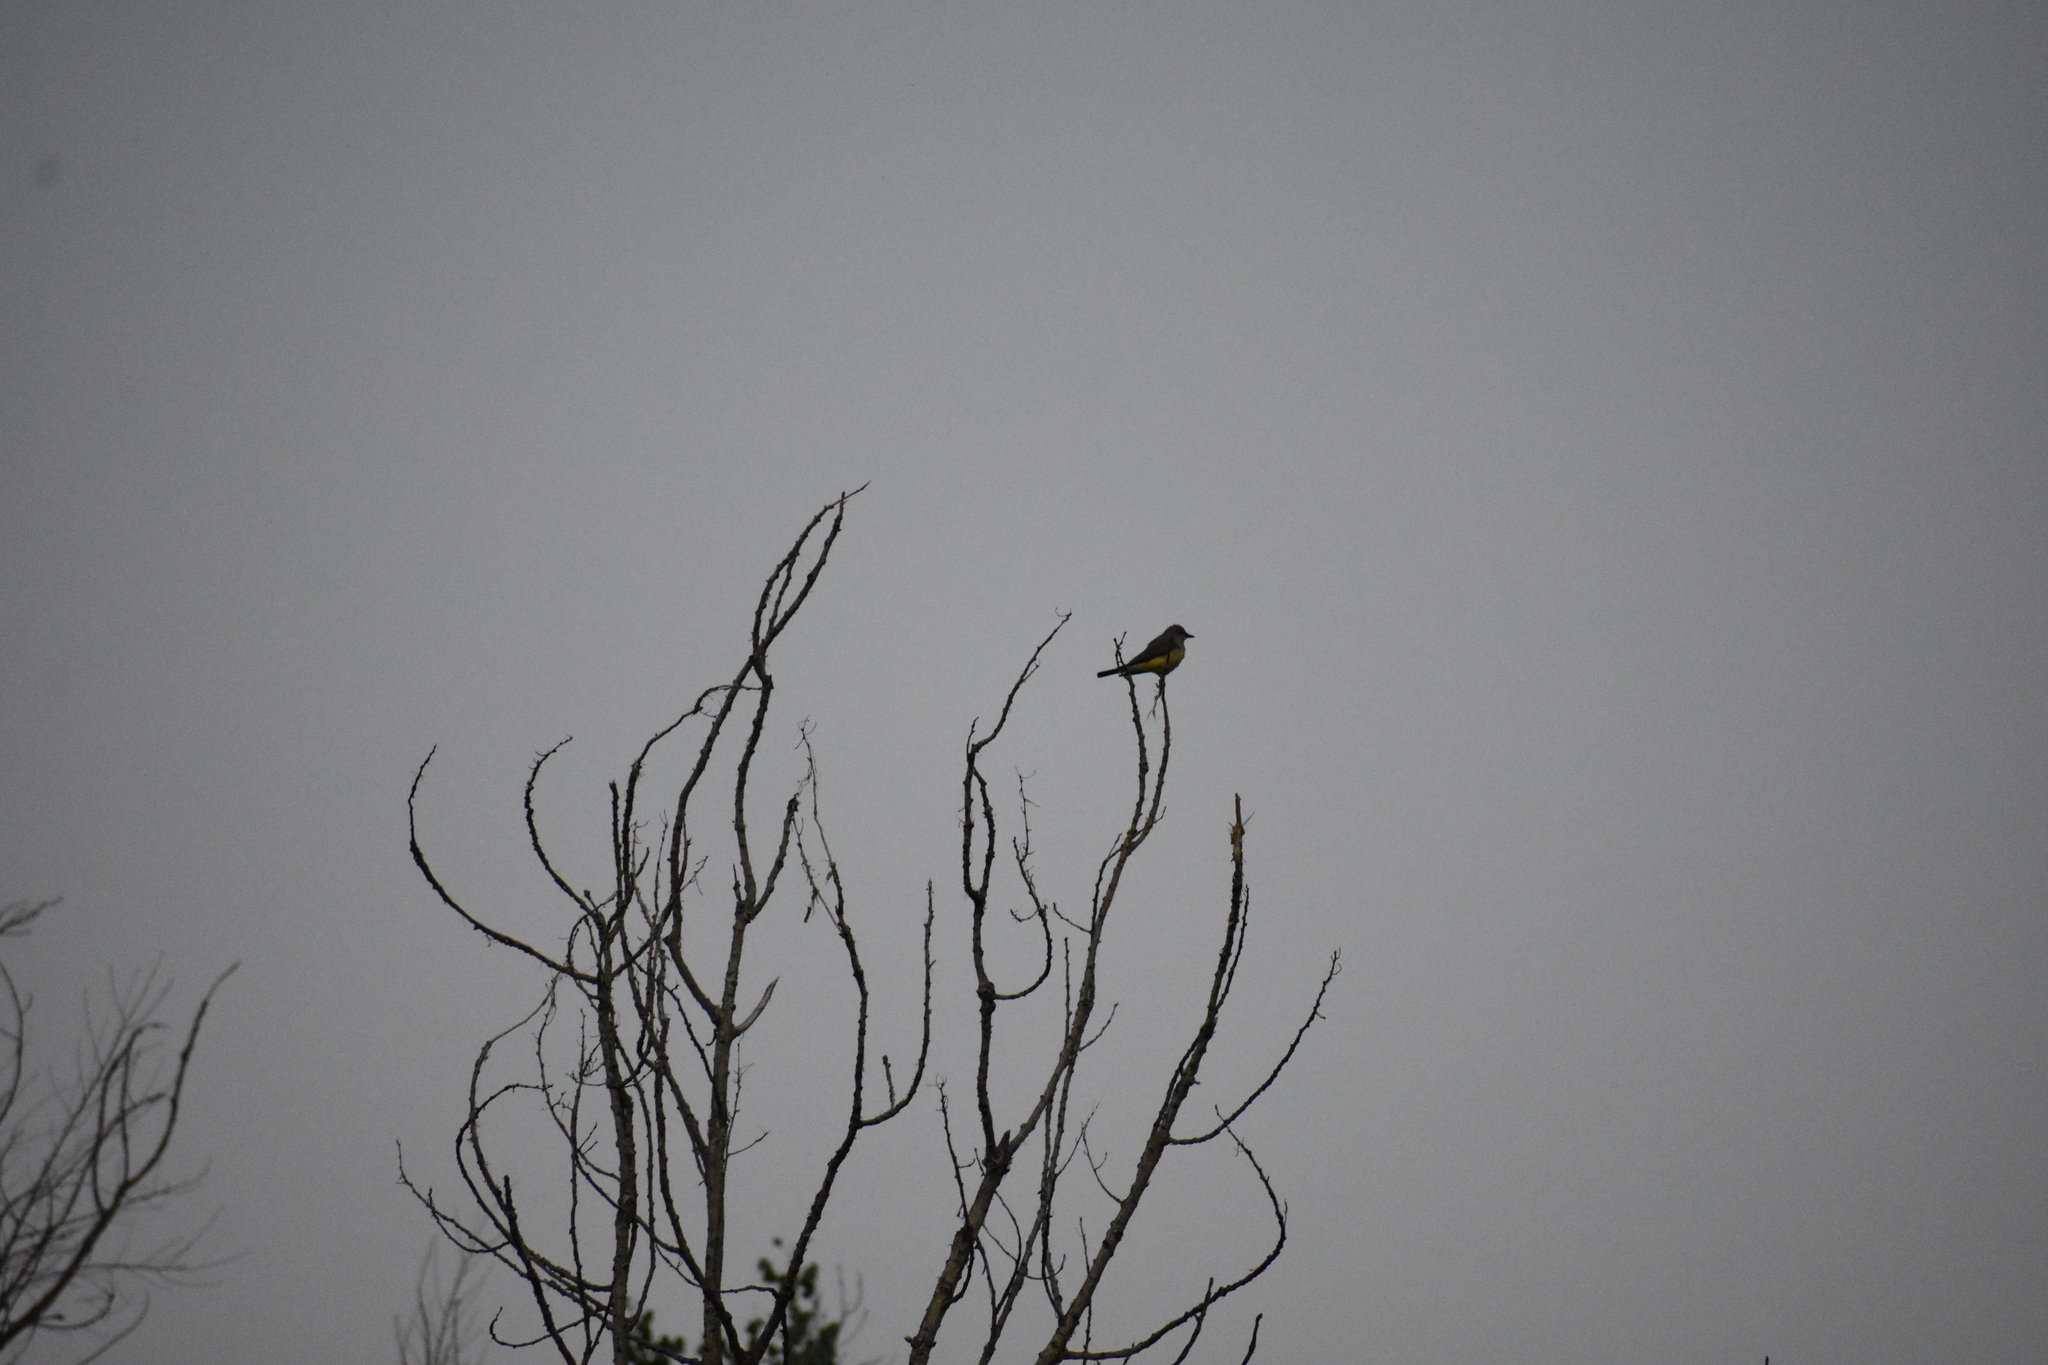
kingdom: Animalia
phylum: Chordata
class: Aves
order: Passeriformes
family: Tyrannidae
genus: Tyrannus
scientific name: Tyrannus verticalis
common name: Western kingbird
